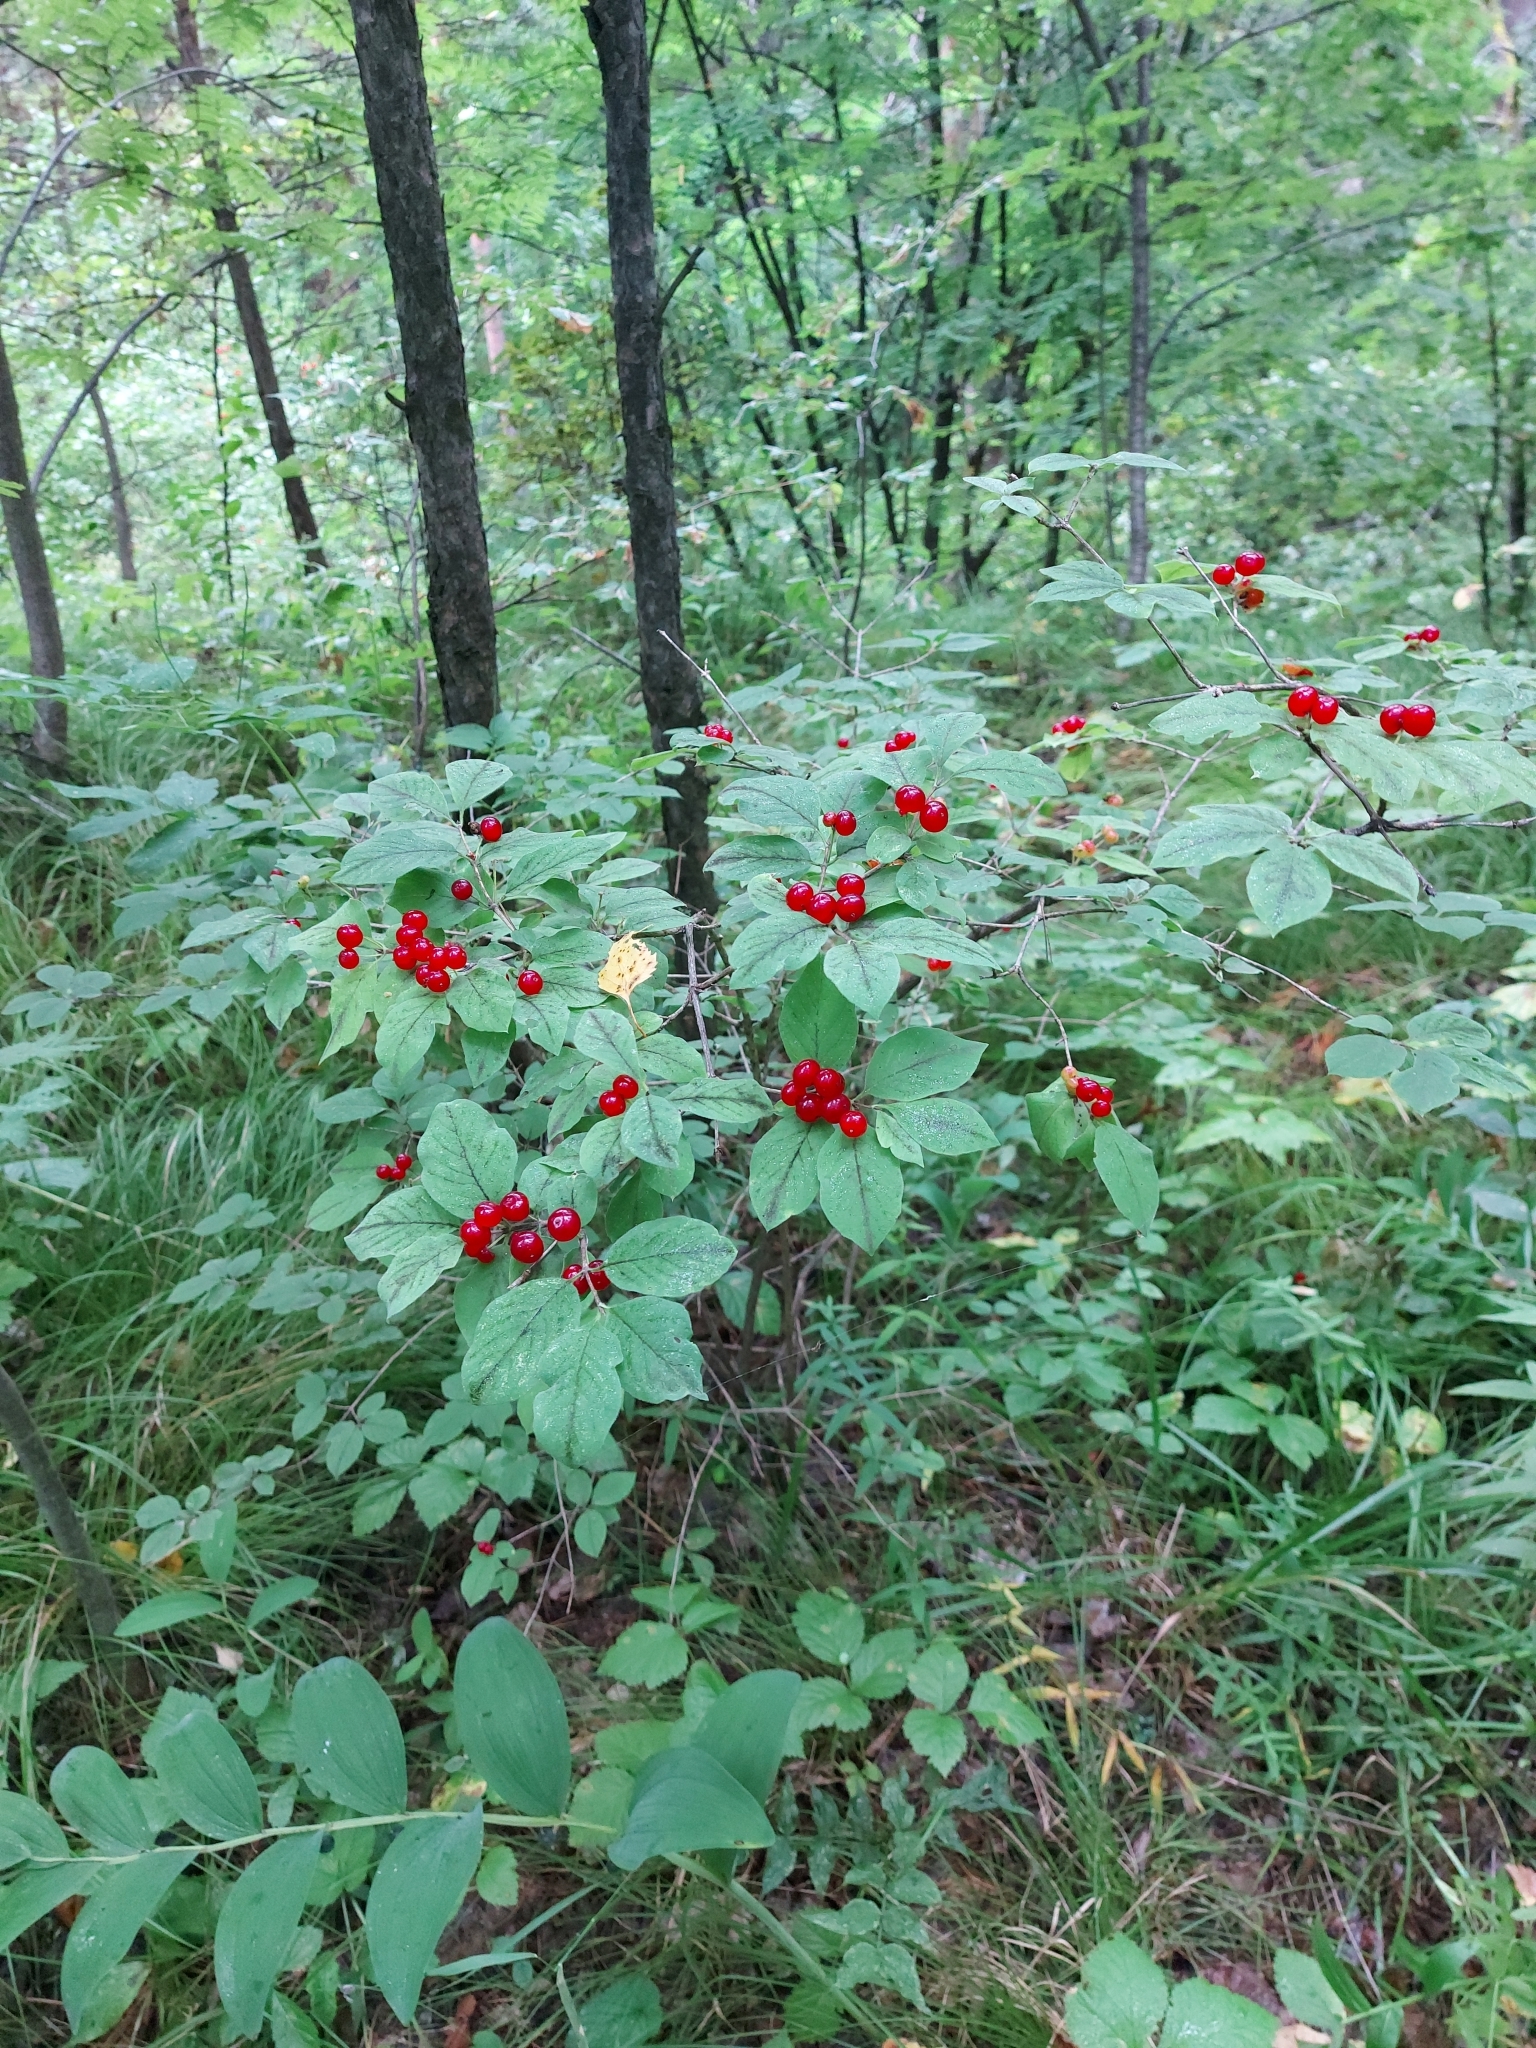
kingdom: Plantae
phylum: Tracheophyta
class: Magnoliopsida
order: Dipsacales
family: Caprifoliaceae
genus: Lonicera
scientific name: Lonicera xylosteum
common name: Fly honeysuckle
